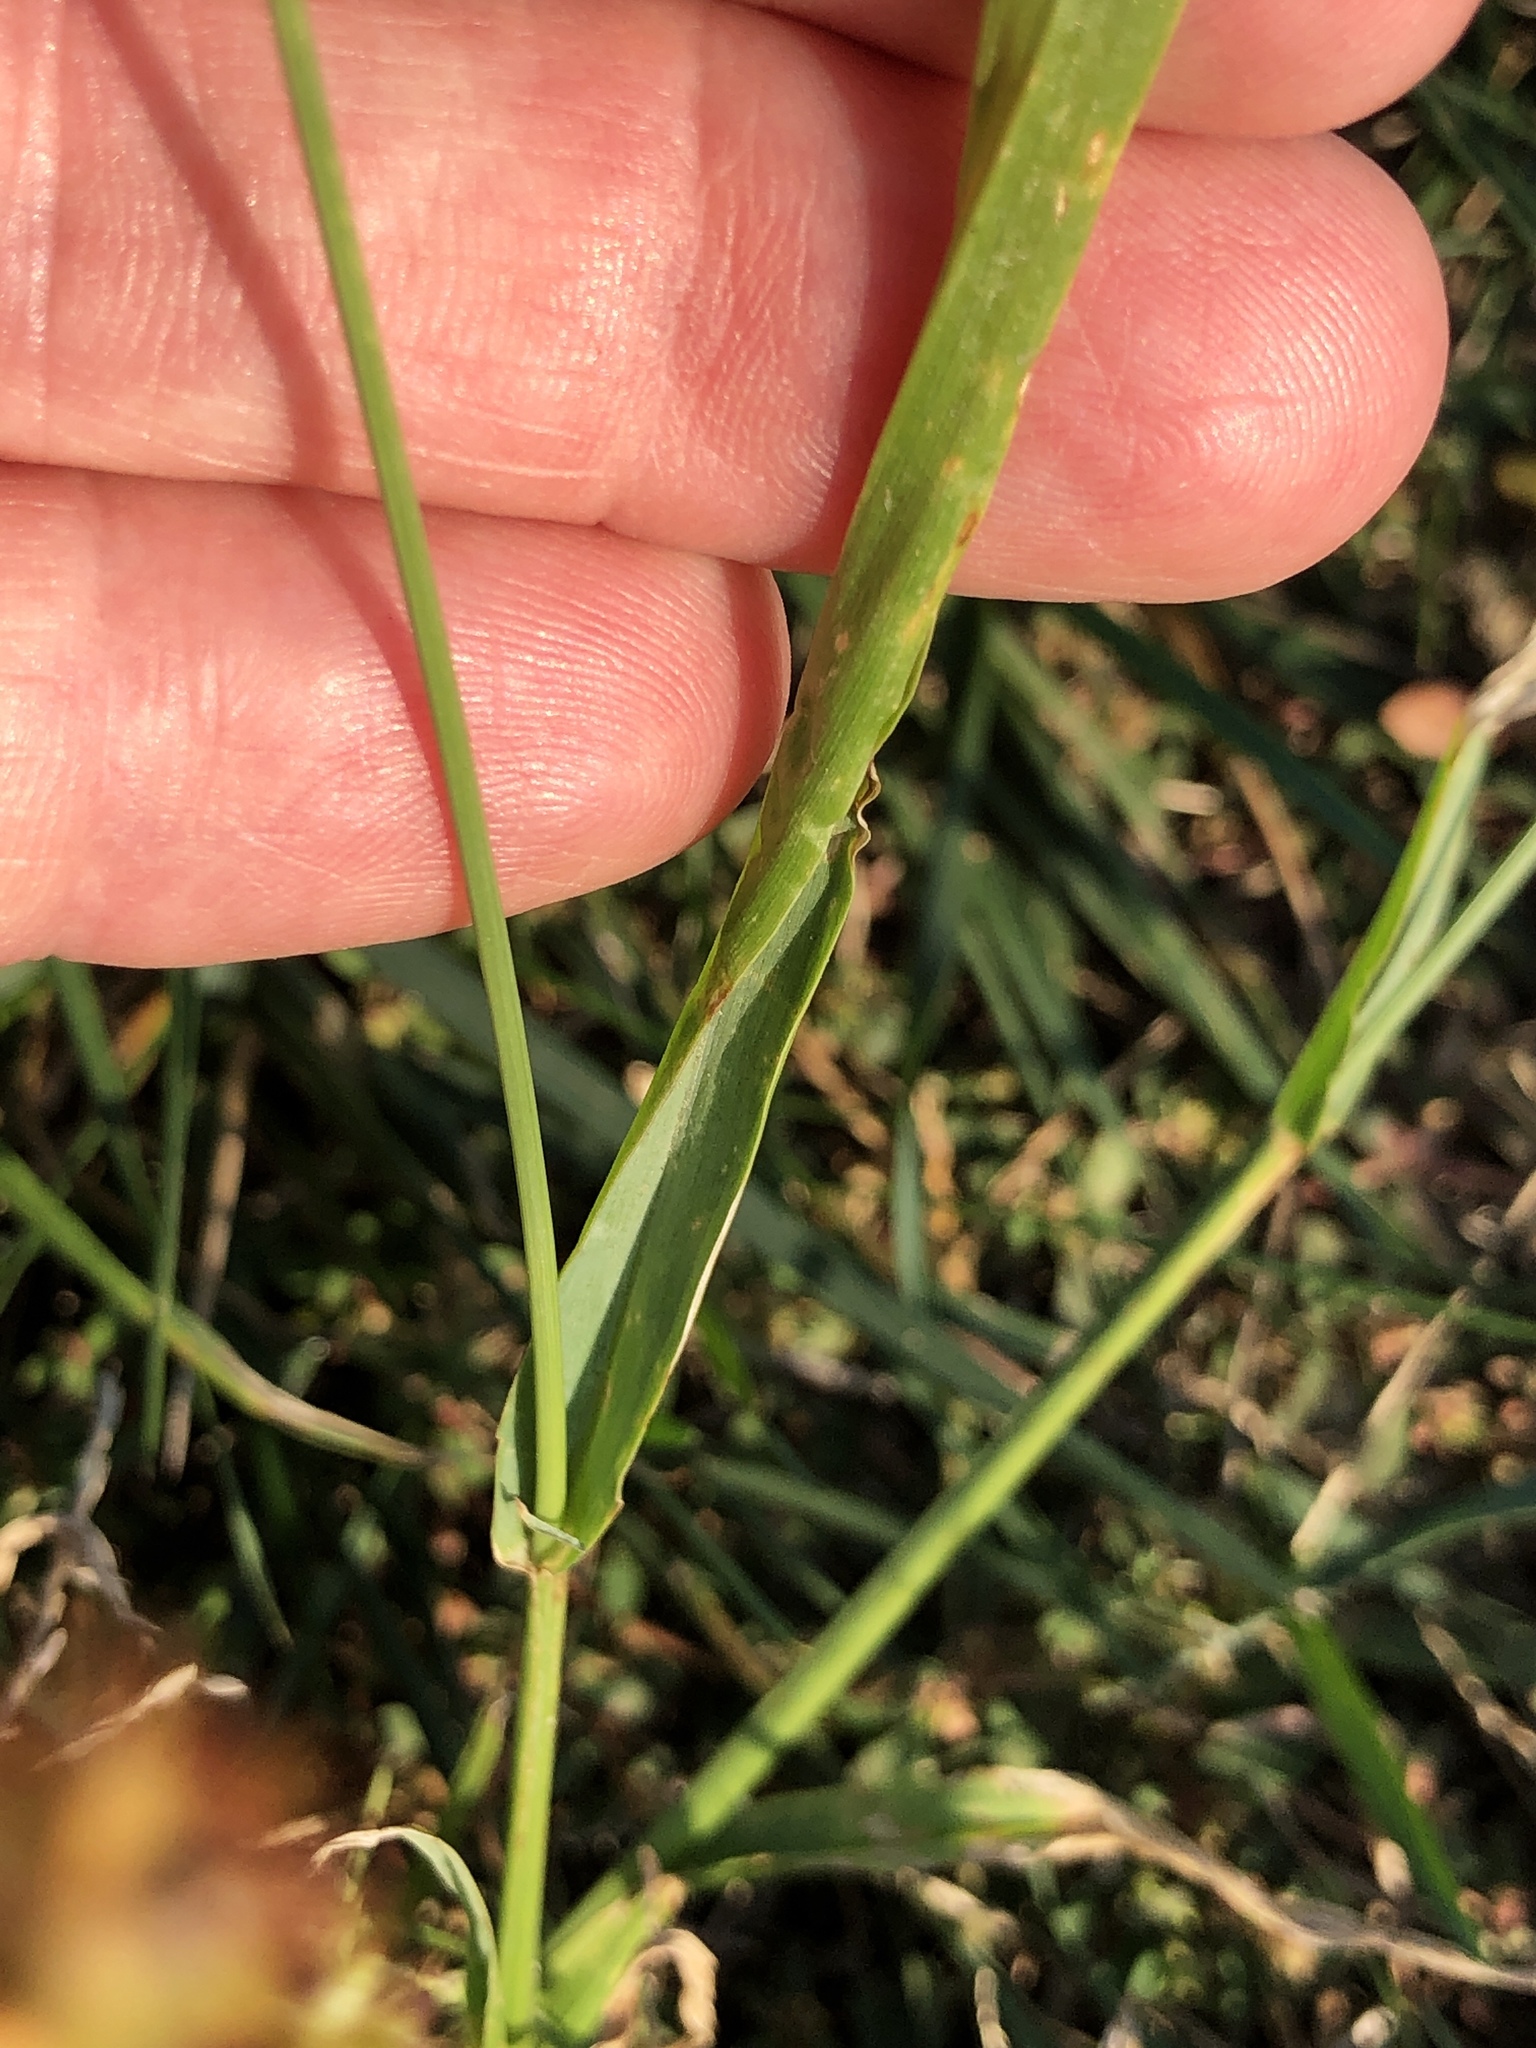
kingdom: Plantae
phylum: Tracheophyta
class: Liliopsida
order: Poales
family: Poaceae
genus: Setaria
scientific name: Setaria pumila
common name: Yellow bristle-grass
